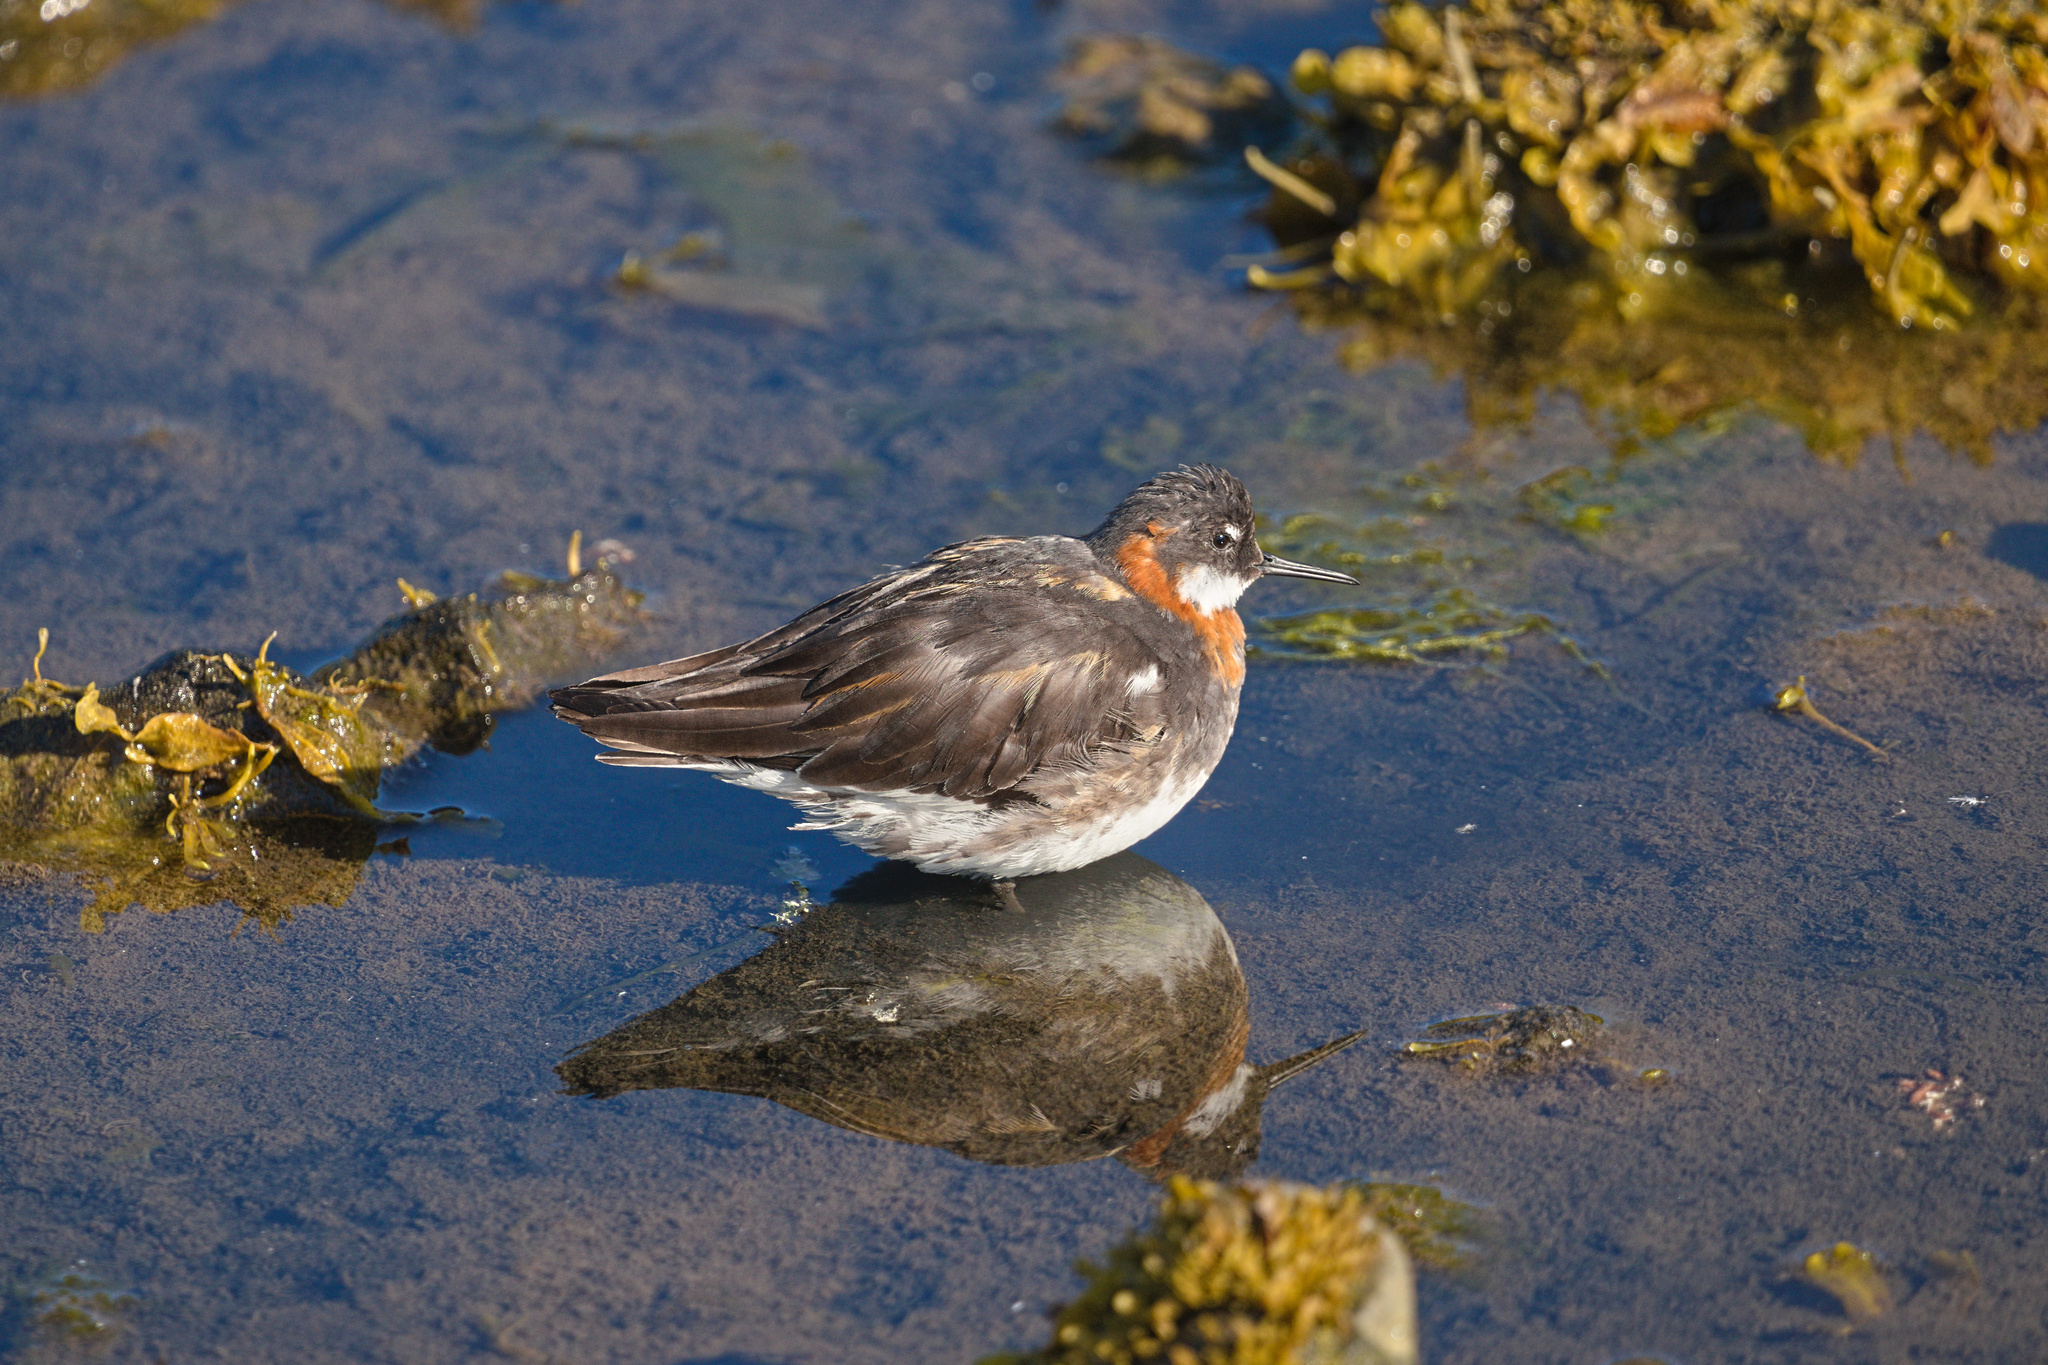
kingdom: Animalia
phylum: Chordata
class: Aves
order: Charadriiformes
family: Scolopacidae
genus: Phalaropus
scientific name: Phalaropus lobatus
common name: Red-necked phalarope
